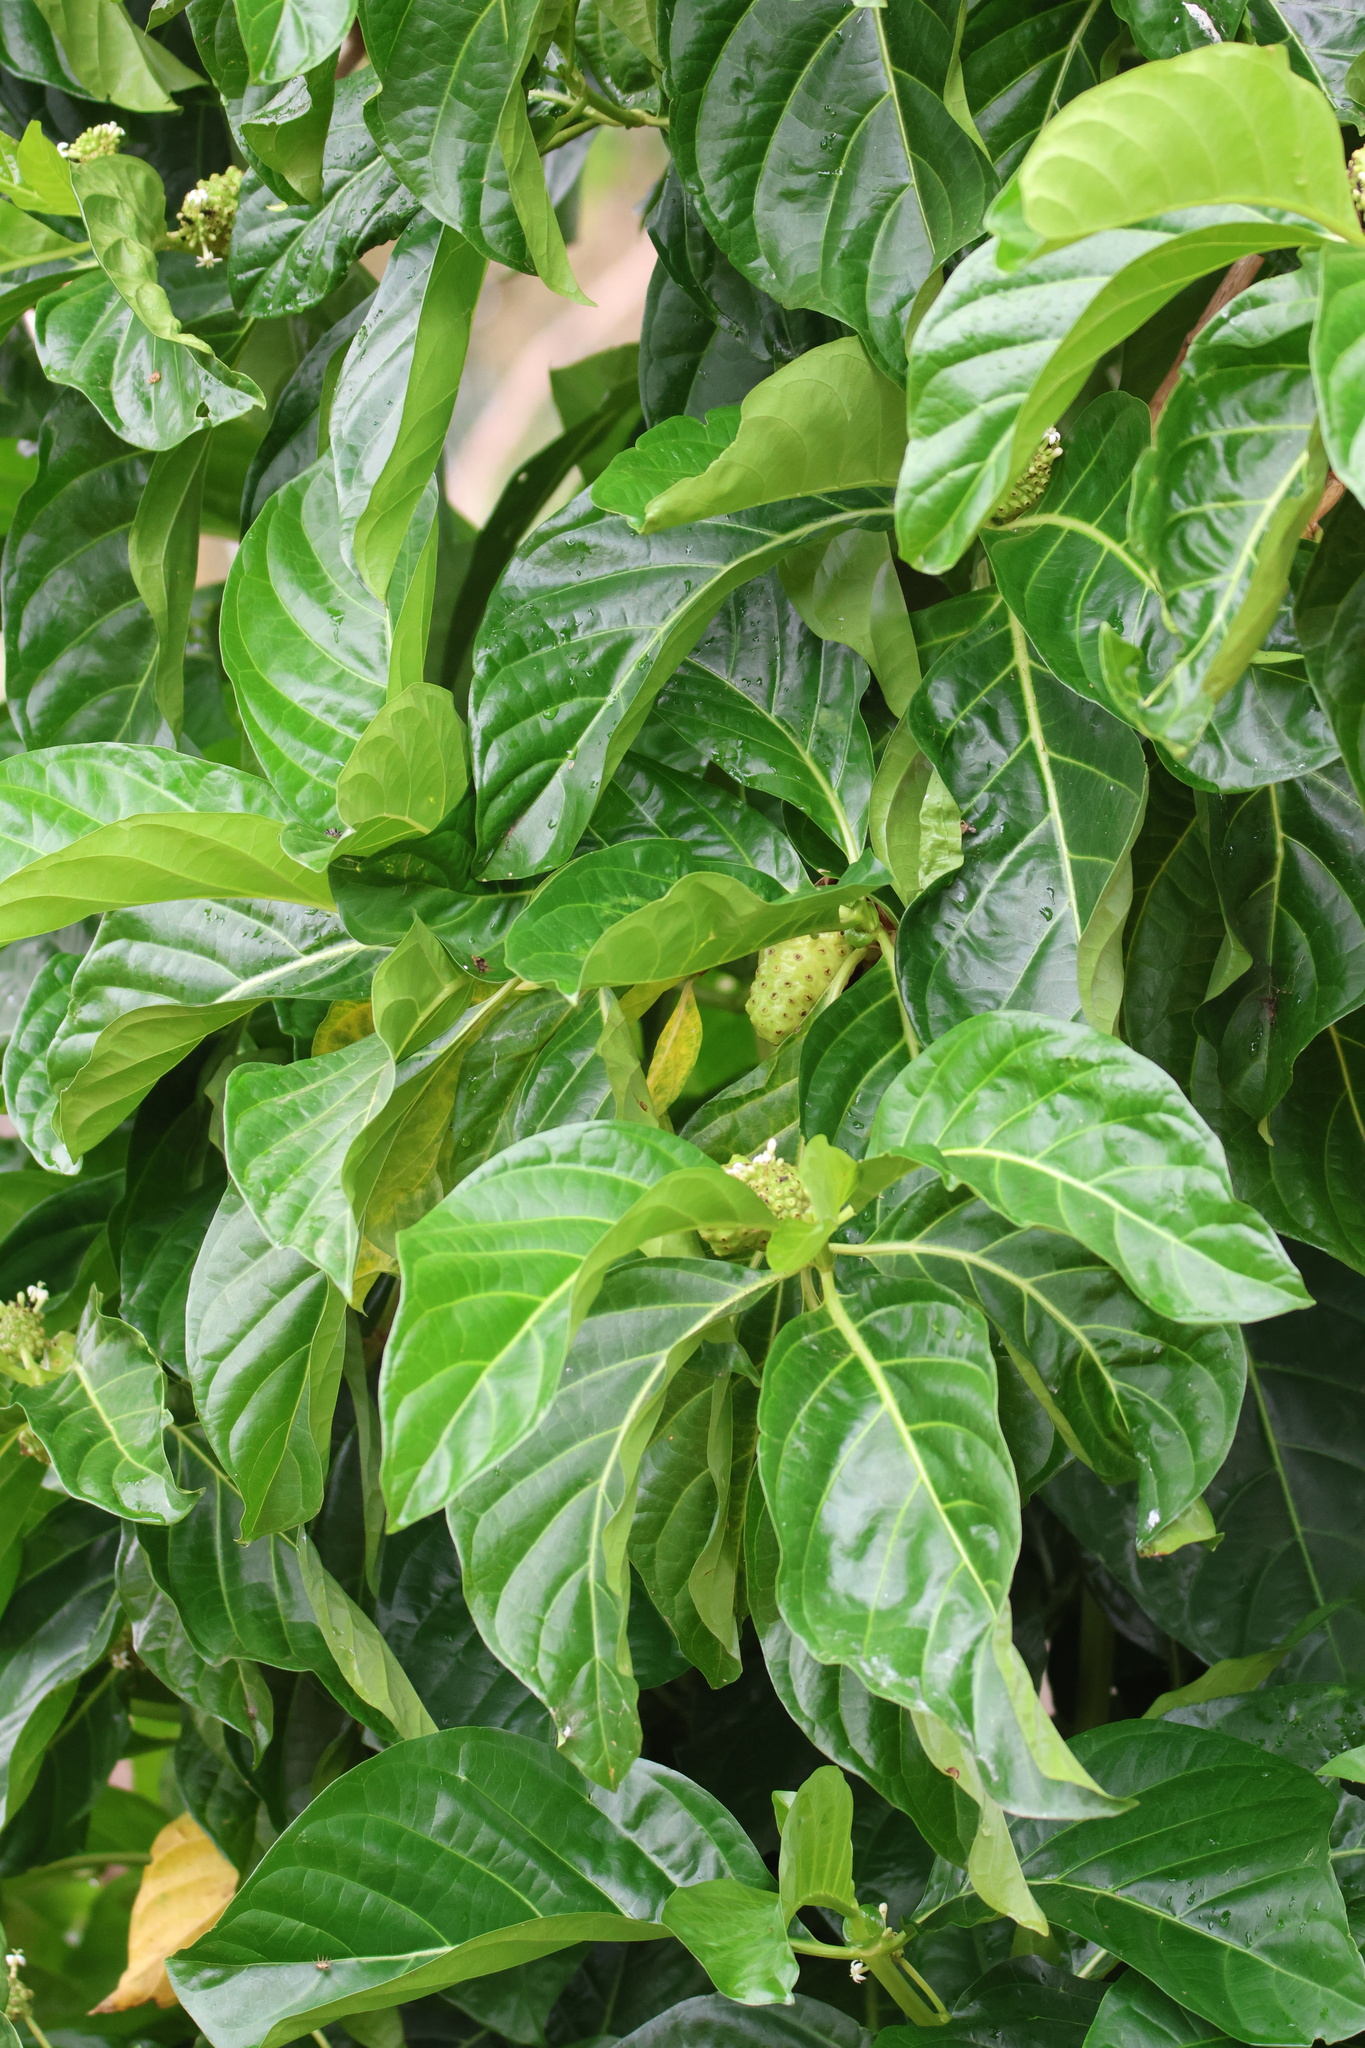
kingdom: Plantae
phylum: Tracheophyta
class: Magnoliopsida
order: Gentianales
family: Rubiaceae
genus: Morinda
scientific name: Morinda citrifolia
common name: Indian-mulberry
